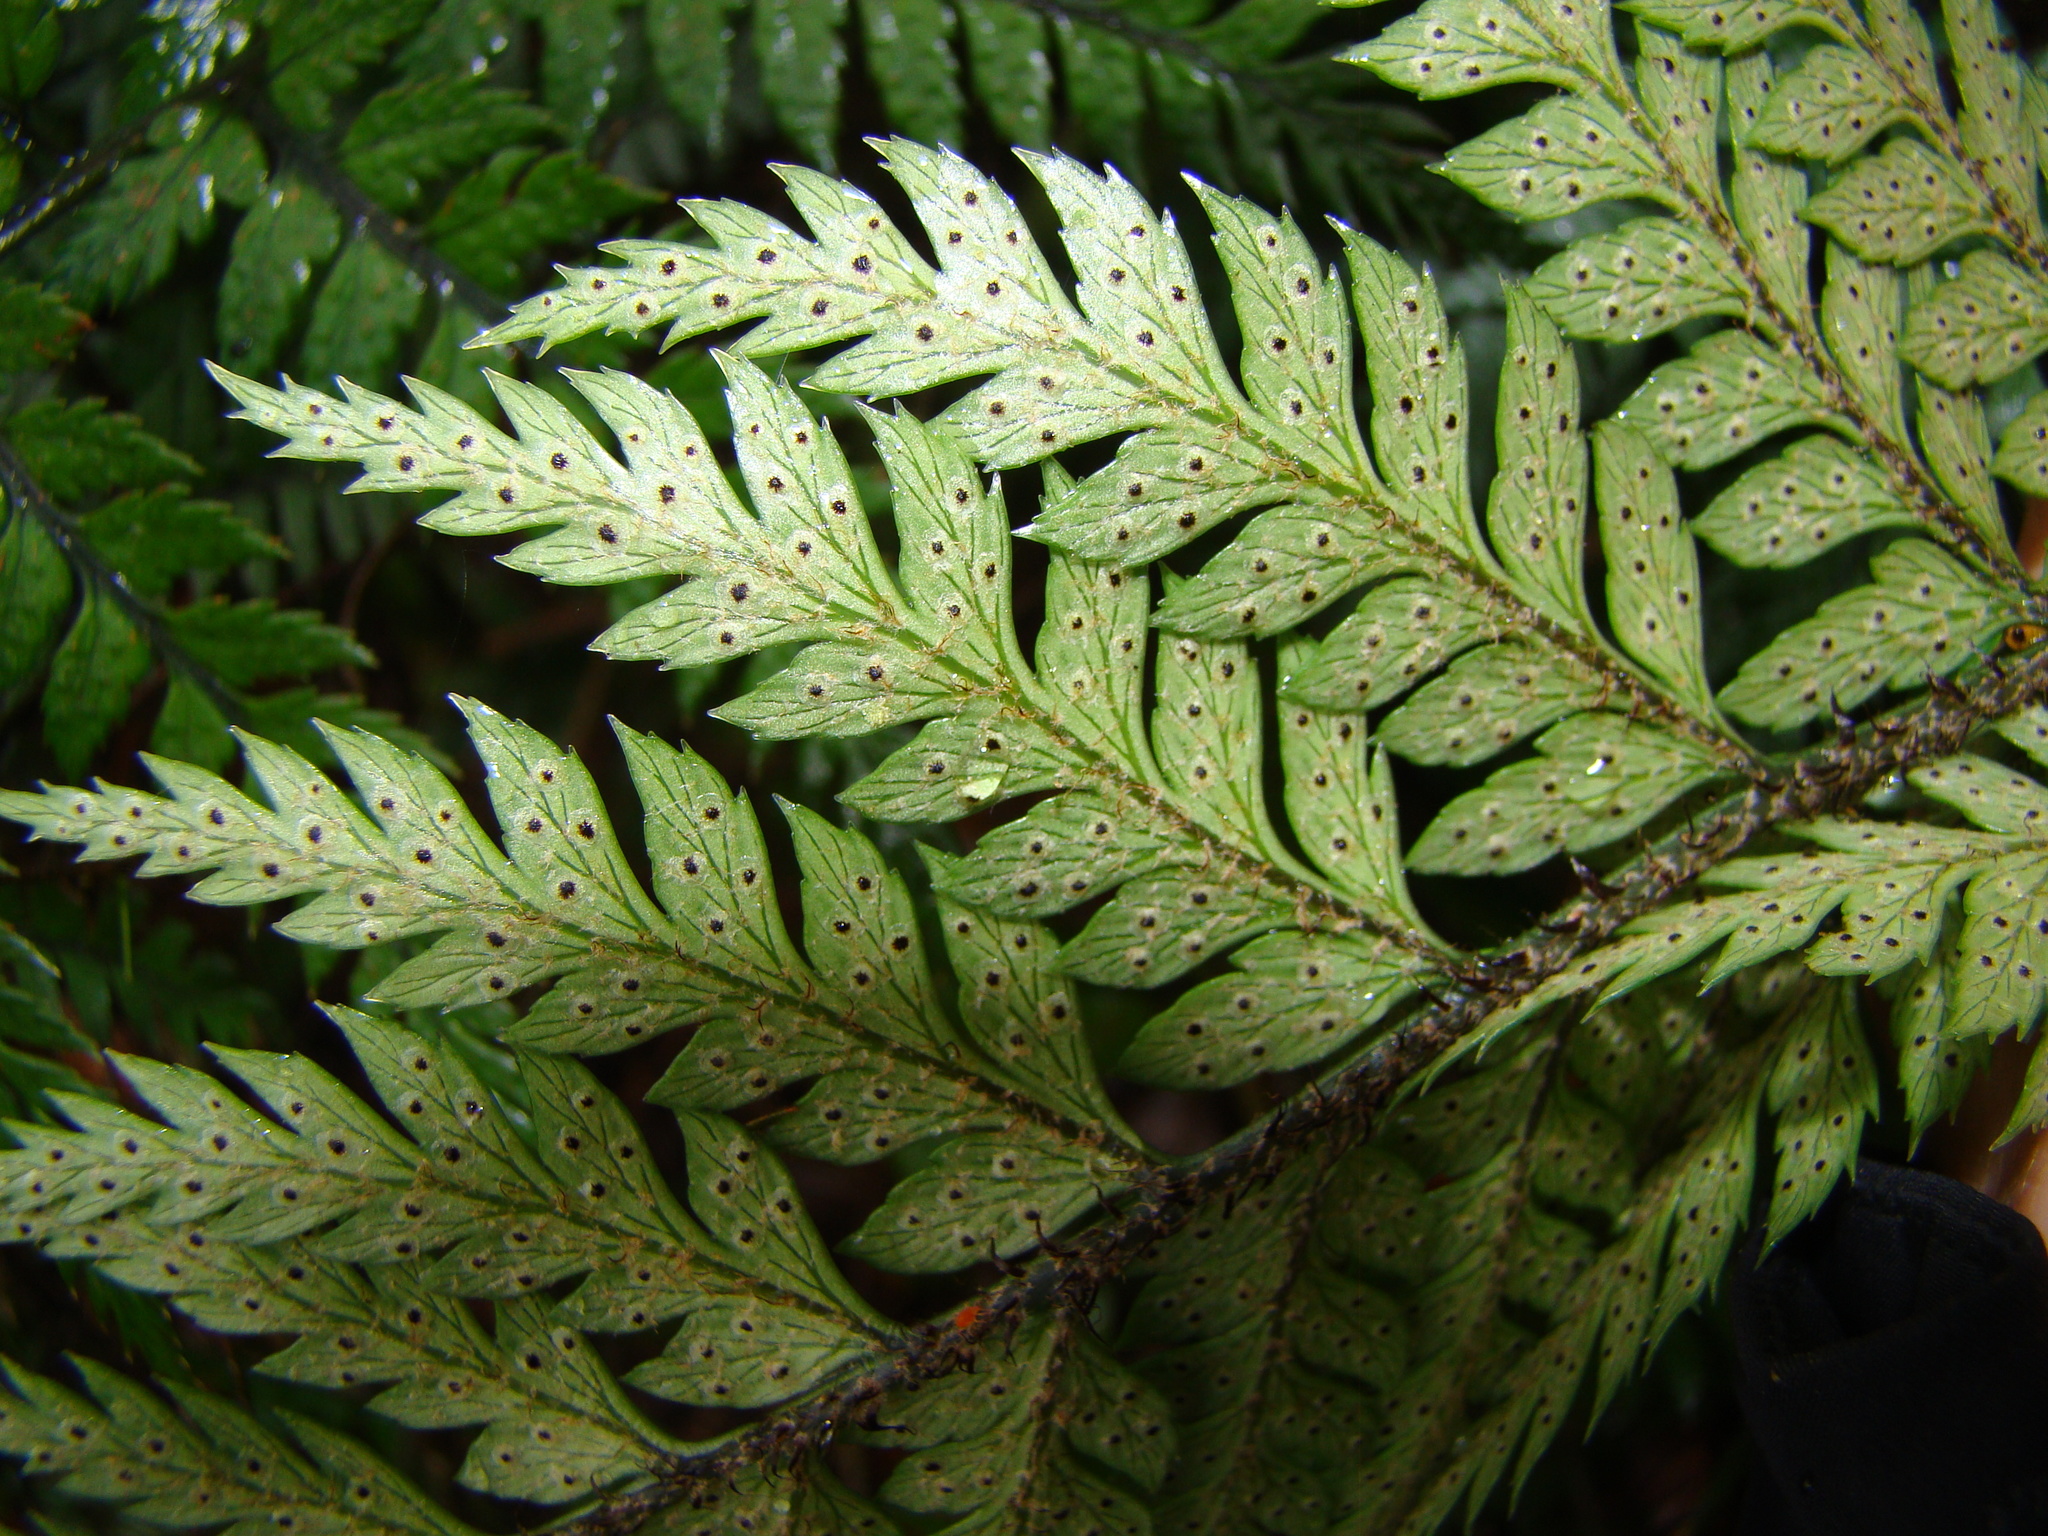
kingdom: Plantae
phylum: Tracheophyta
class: Polypodiopsida
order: Polypodiales
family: Dryopteridaceae
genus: Polystichum
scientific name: Polystichum neozelandicum
